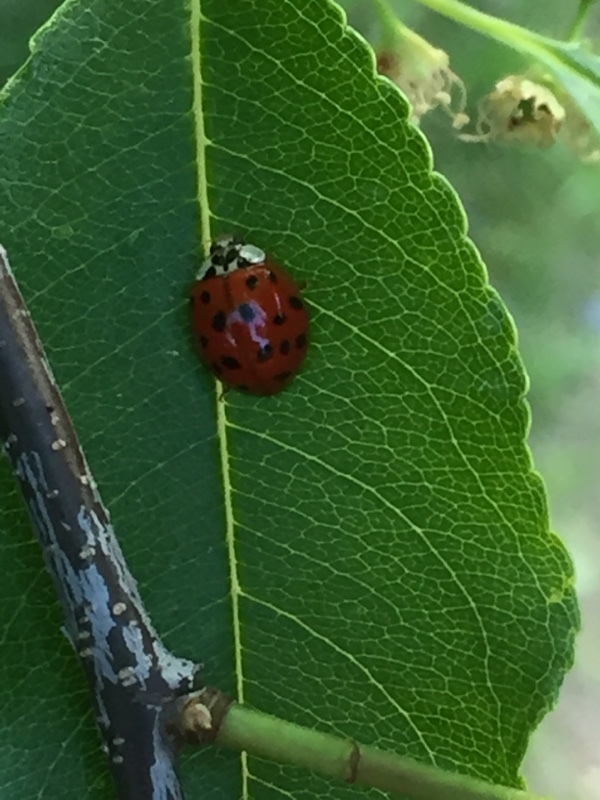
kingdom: Animalia
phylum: Arthropoda
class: Insecta
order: Coleoptera
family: Coccinellidae
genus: Harmonia
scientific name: Harmonia axyridis
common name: Harlequin ladybird
